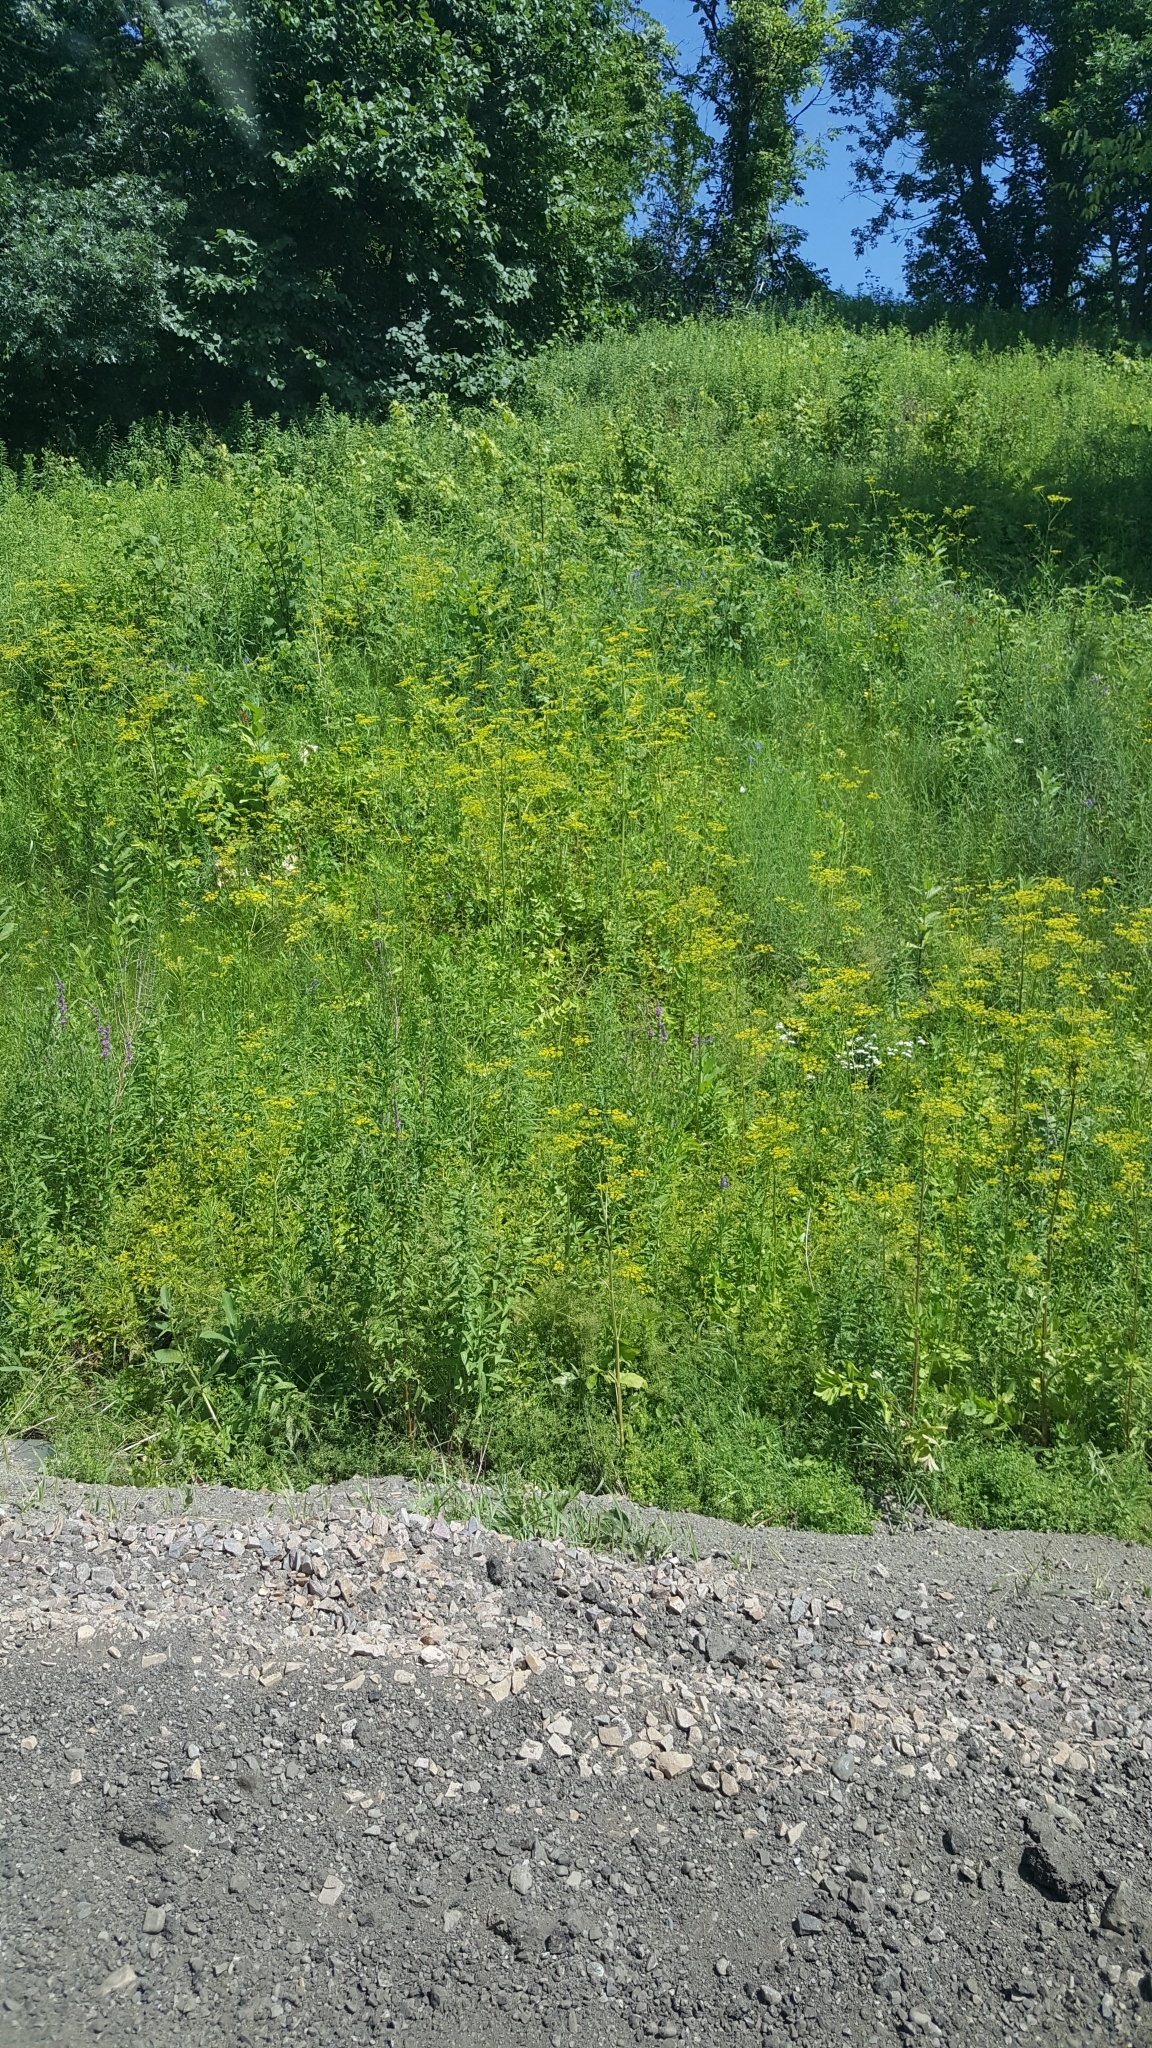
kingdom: Plantae
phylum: Tracheophyta
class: Magnoliopsida
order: Apiales
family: Apiaceae
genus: Pastinaca
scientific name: Pastinaca sativa
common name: Wild parsnip
